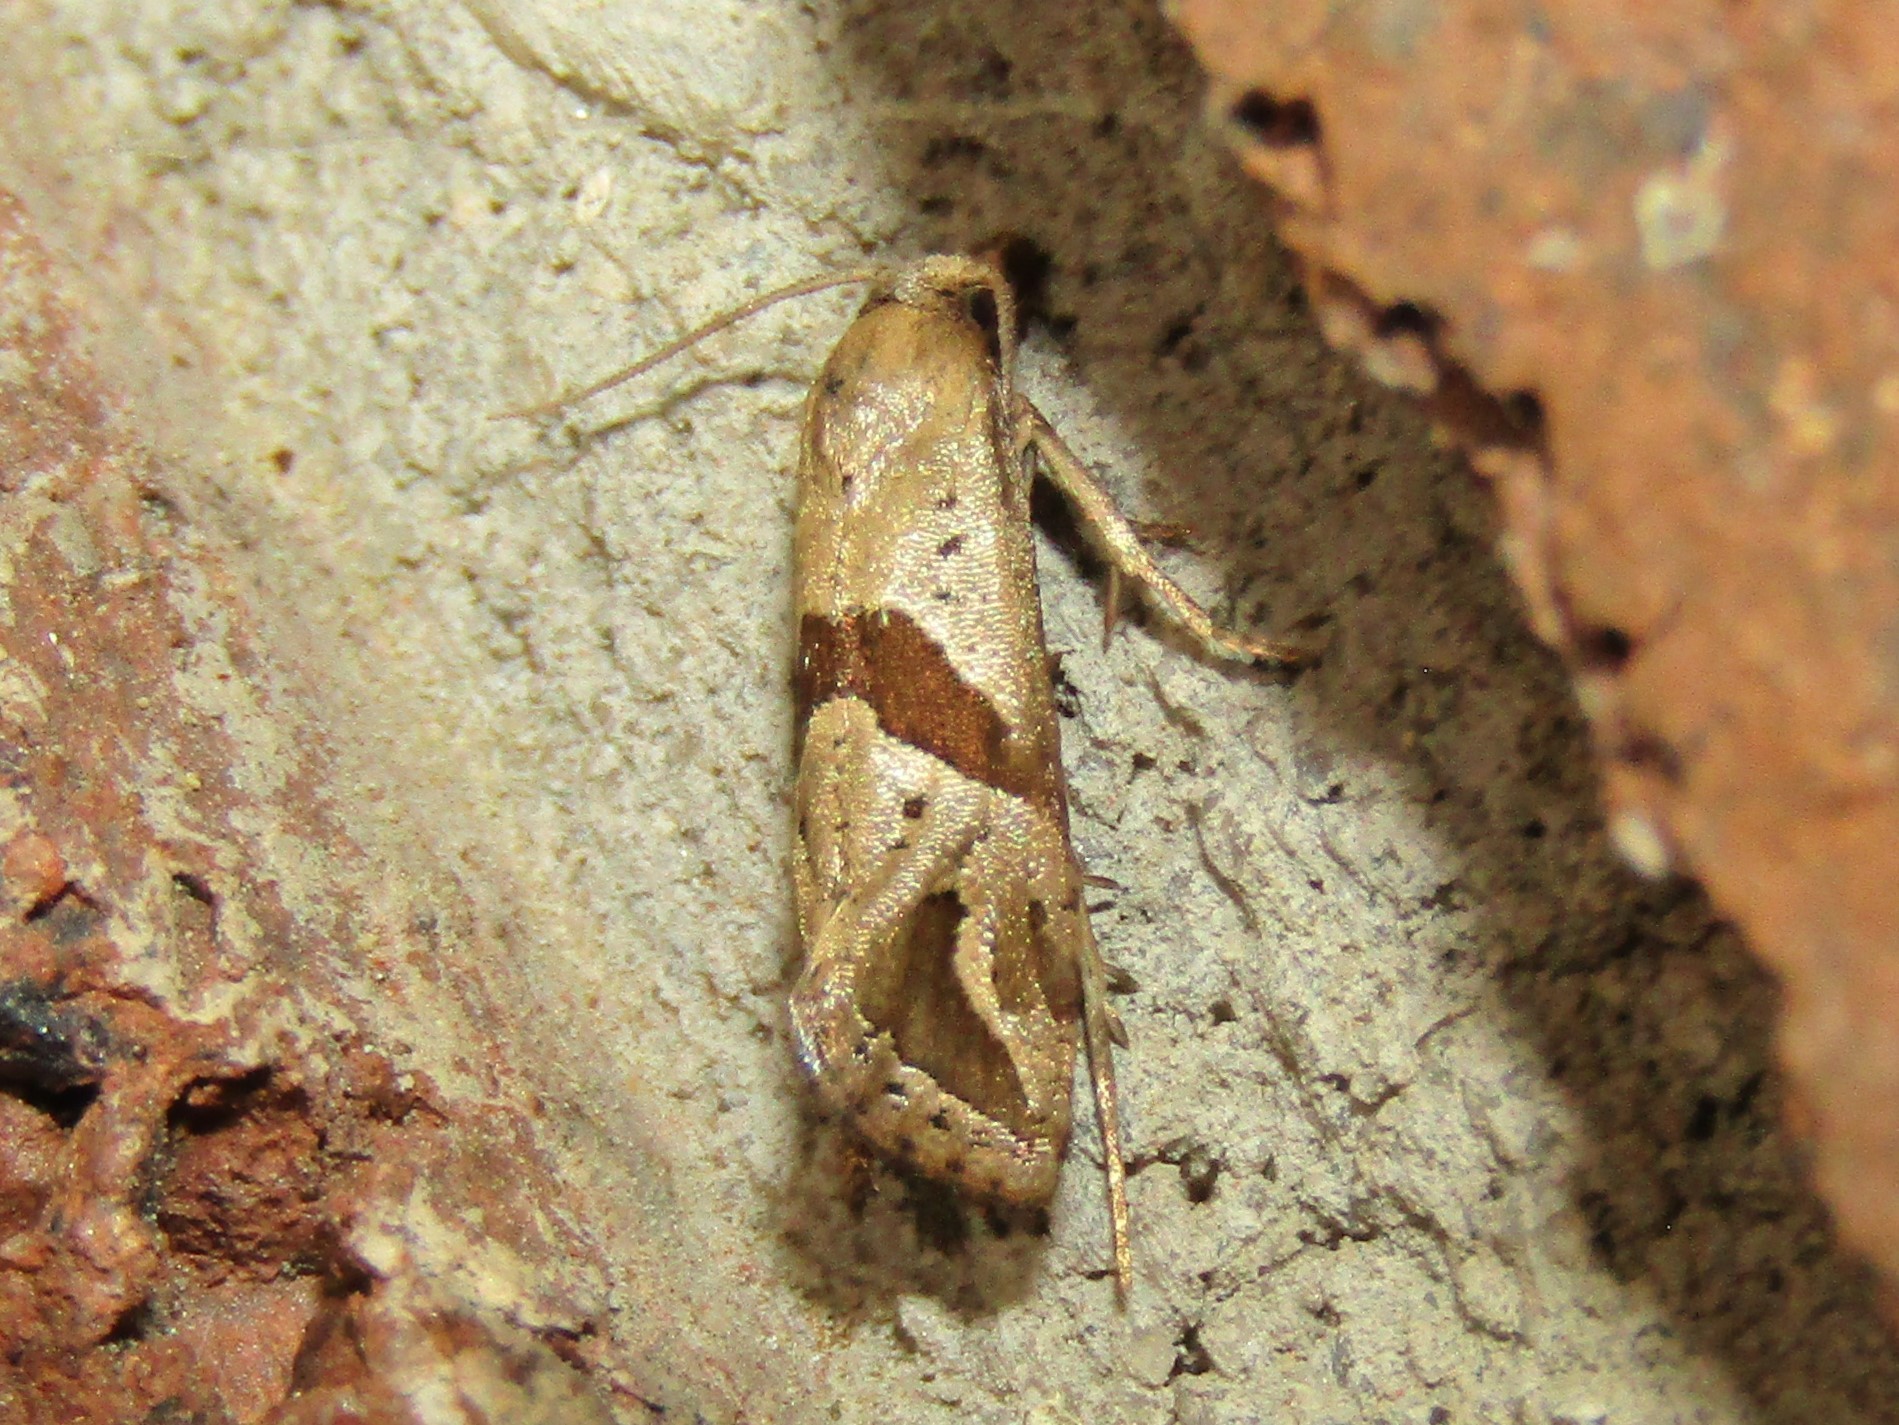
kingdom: Animalia
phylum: Arthropoda
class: Insecta
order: Lepidoptera
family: Tortricidae
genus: Eugnosta
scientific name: Eugnosta sartana
